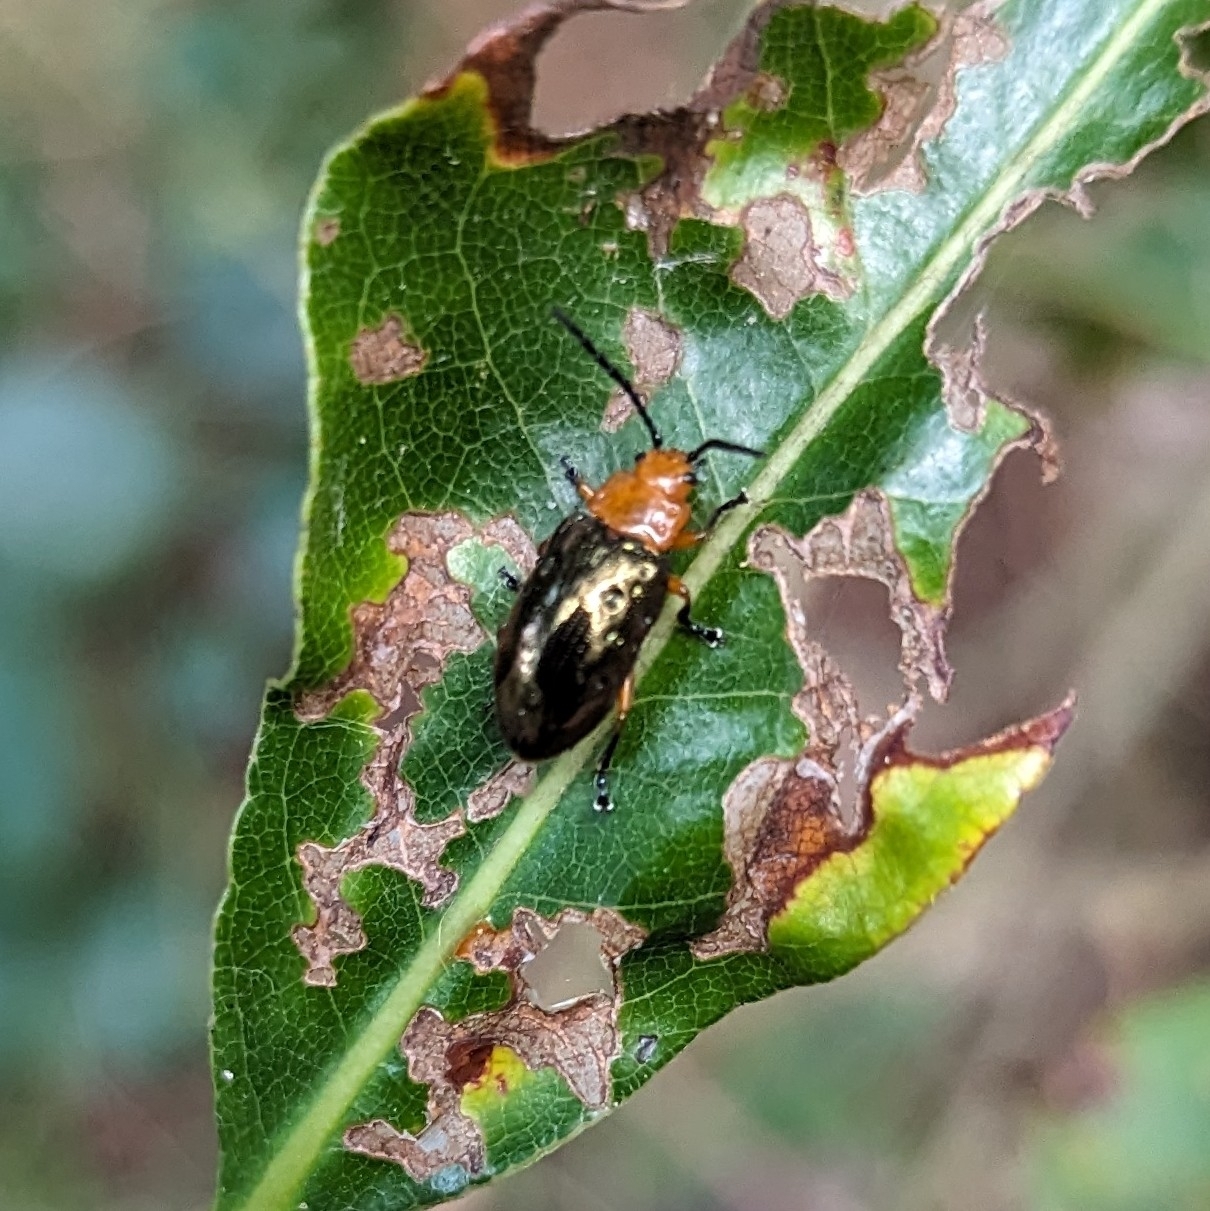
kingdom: Animalia
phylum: Arthropoda
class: Insecta
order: Coleoptera
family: Chrysomelidae
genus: Lamprolina
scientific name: Lamprolina
